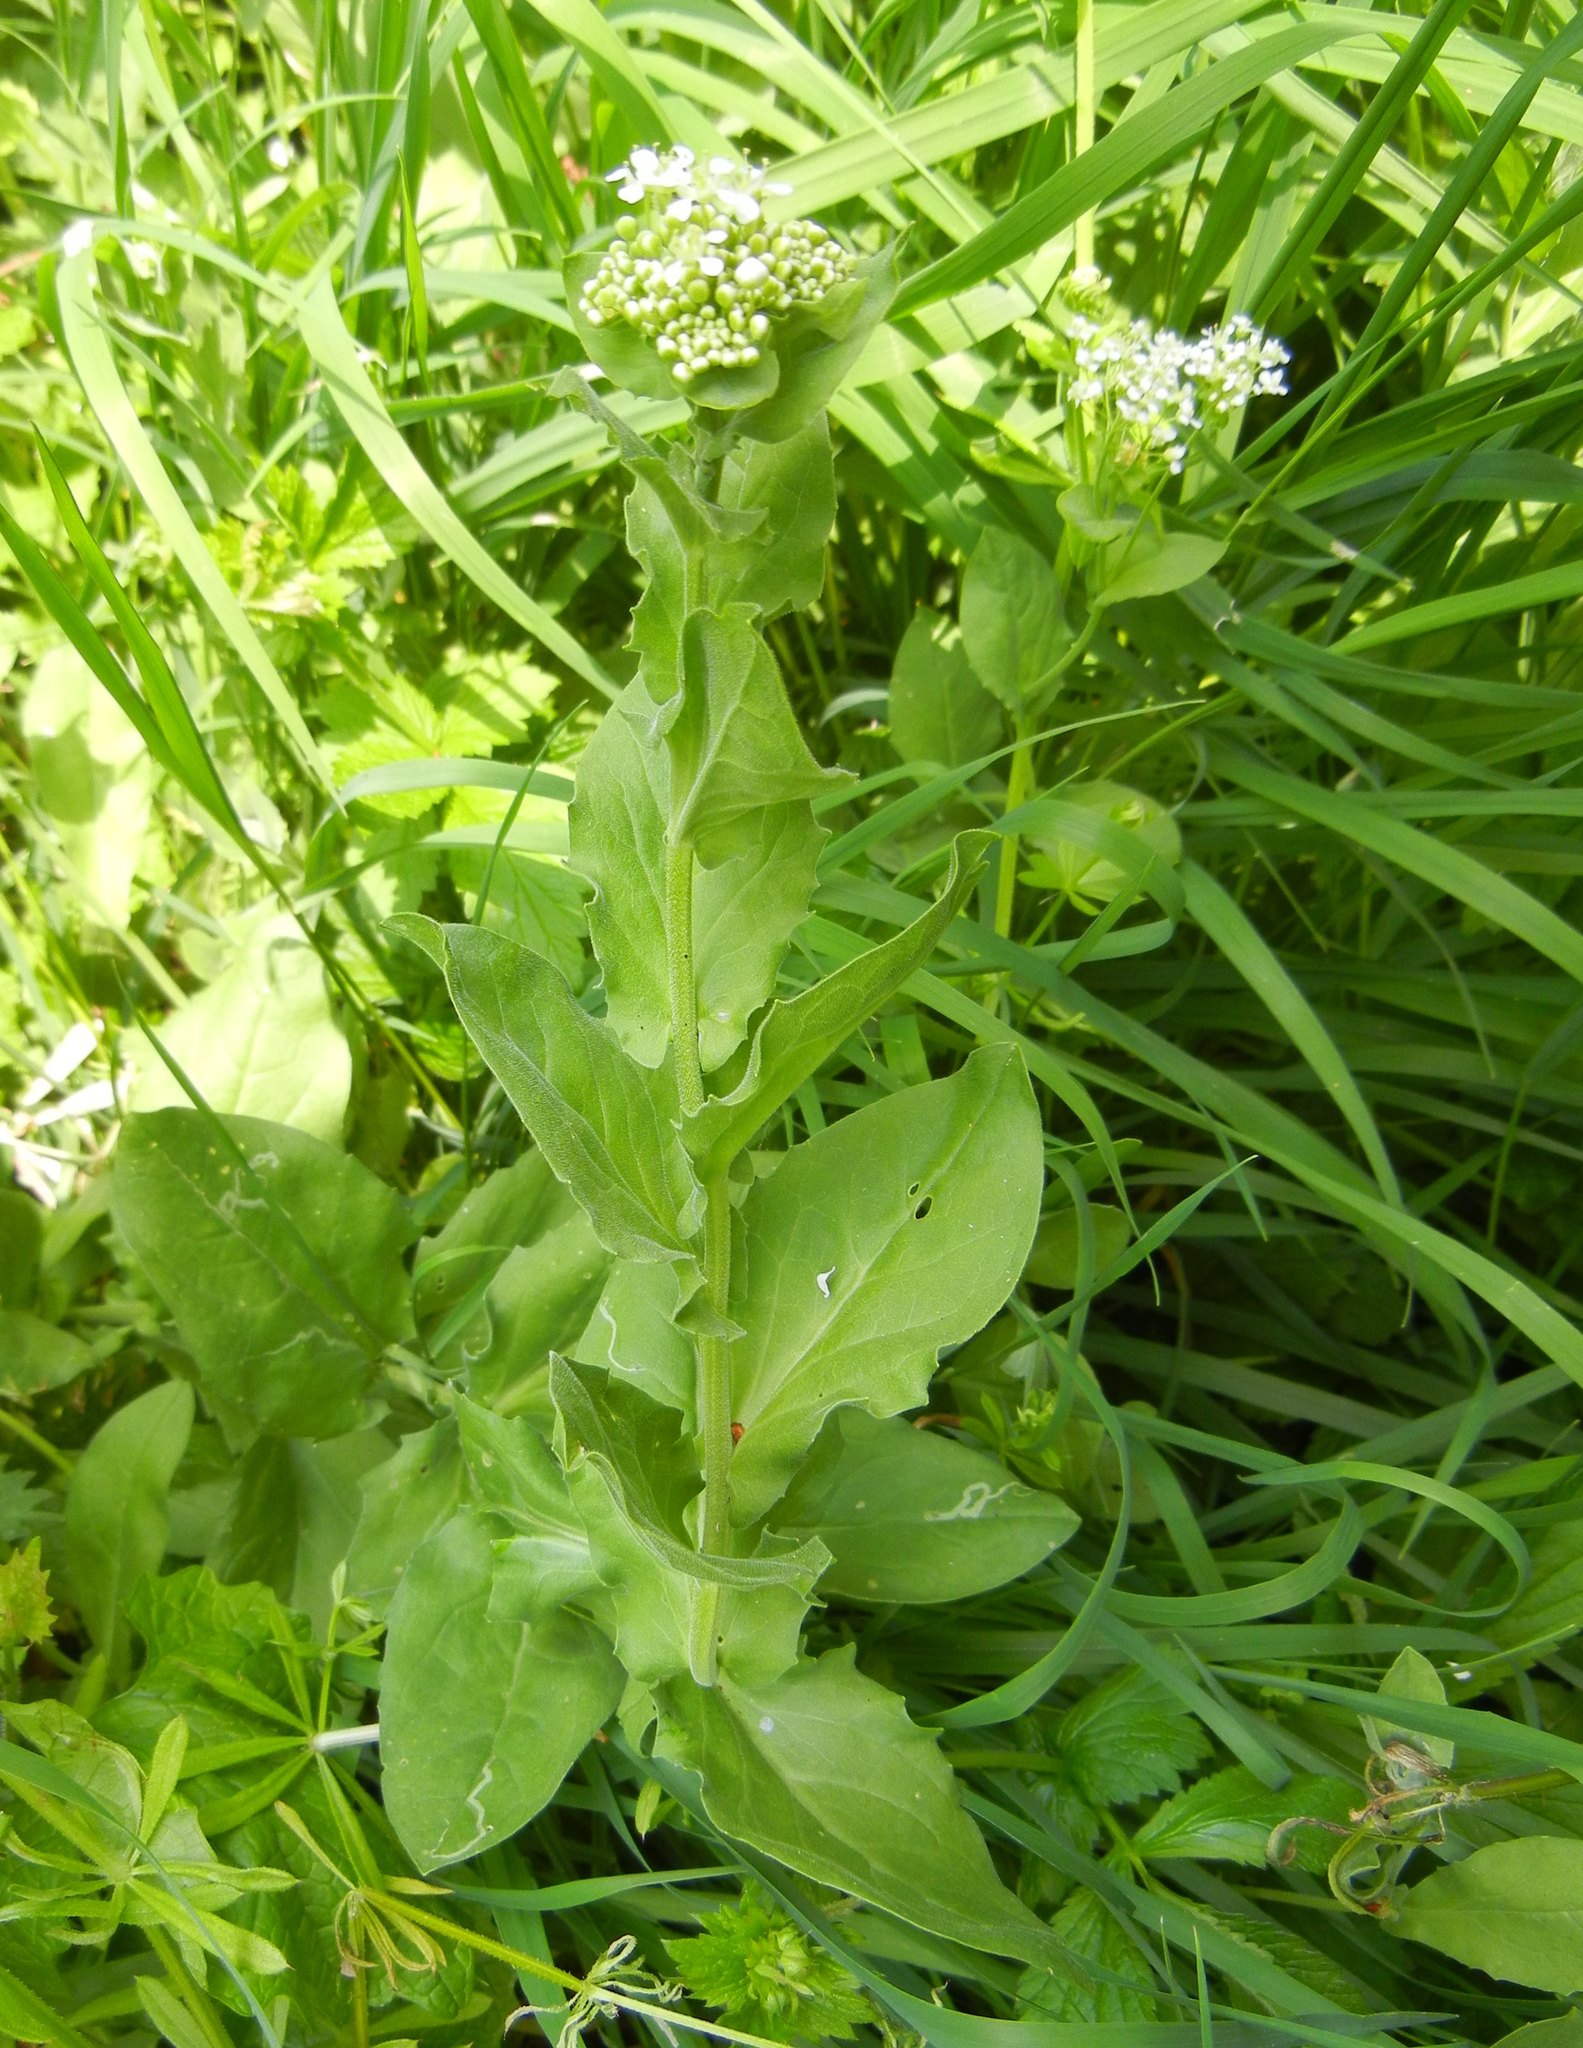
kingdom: Plantae
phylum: Tracheophyta
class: Magnoliopsida
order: Brassicales
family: Brassicaceae
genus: Lepidium
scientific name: Lepidium draba
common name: Hoary cress
